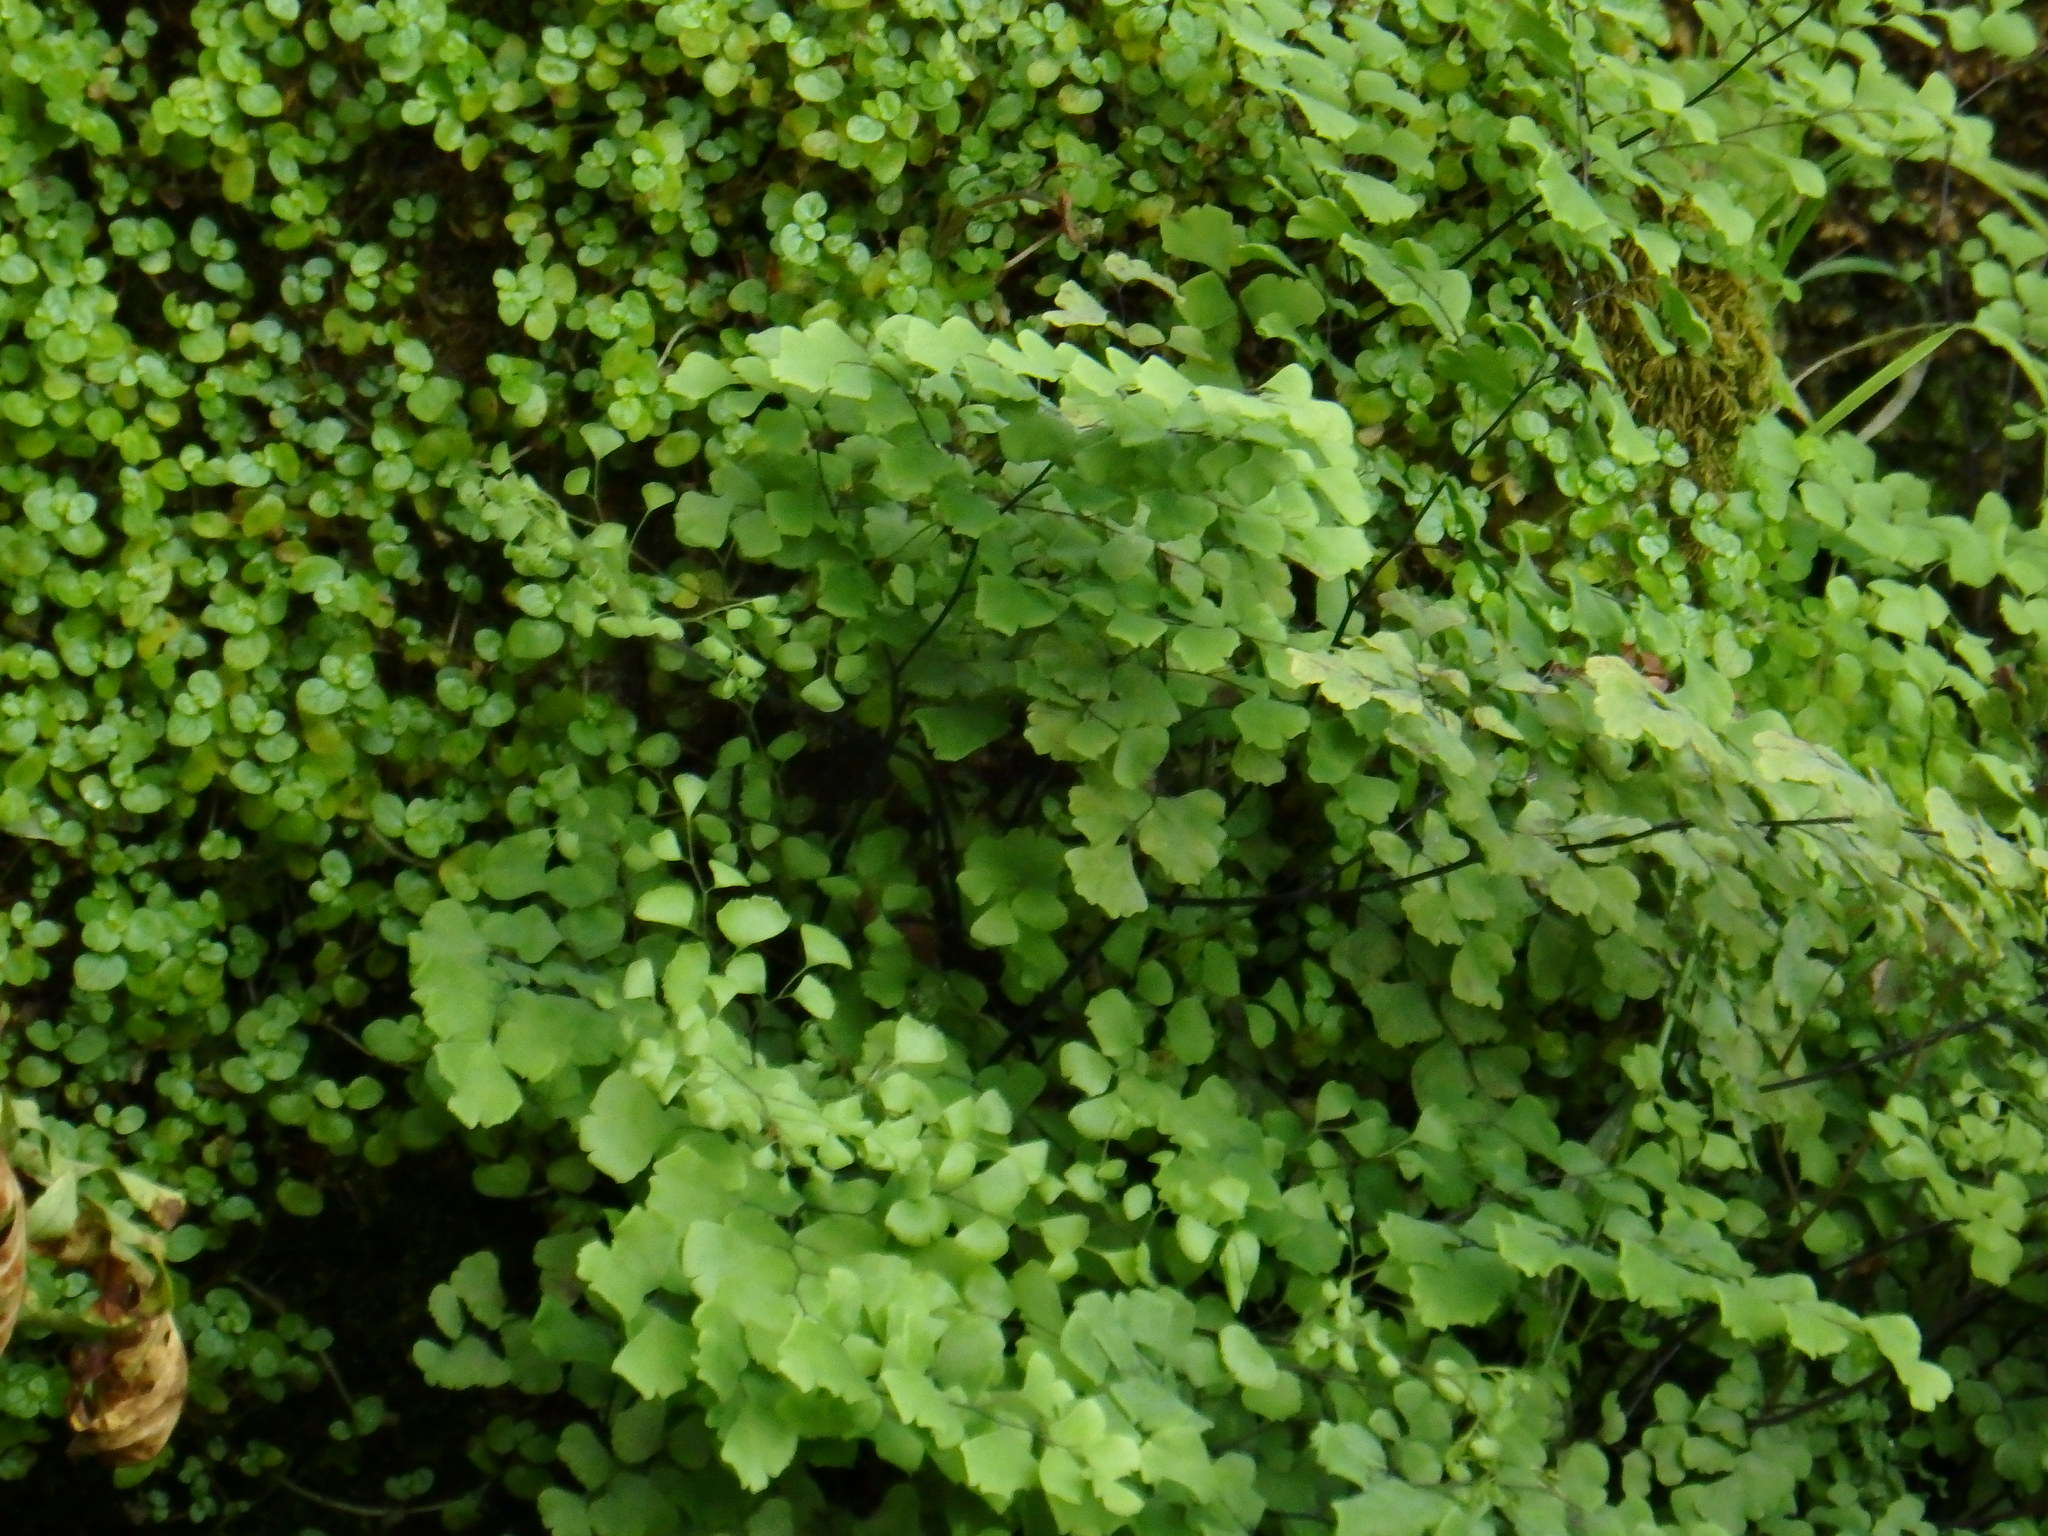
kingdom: Plantae
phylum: Tracheophyta
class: Polypodiopsida
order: Polypodiales
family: Pteridaceae
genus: Adiantum
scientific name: Adiantum capillus-veneris
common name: Maidenhair fern
